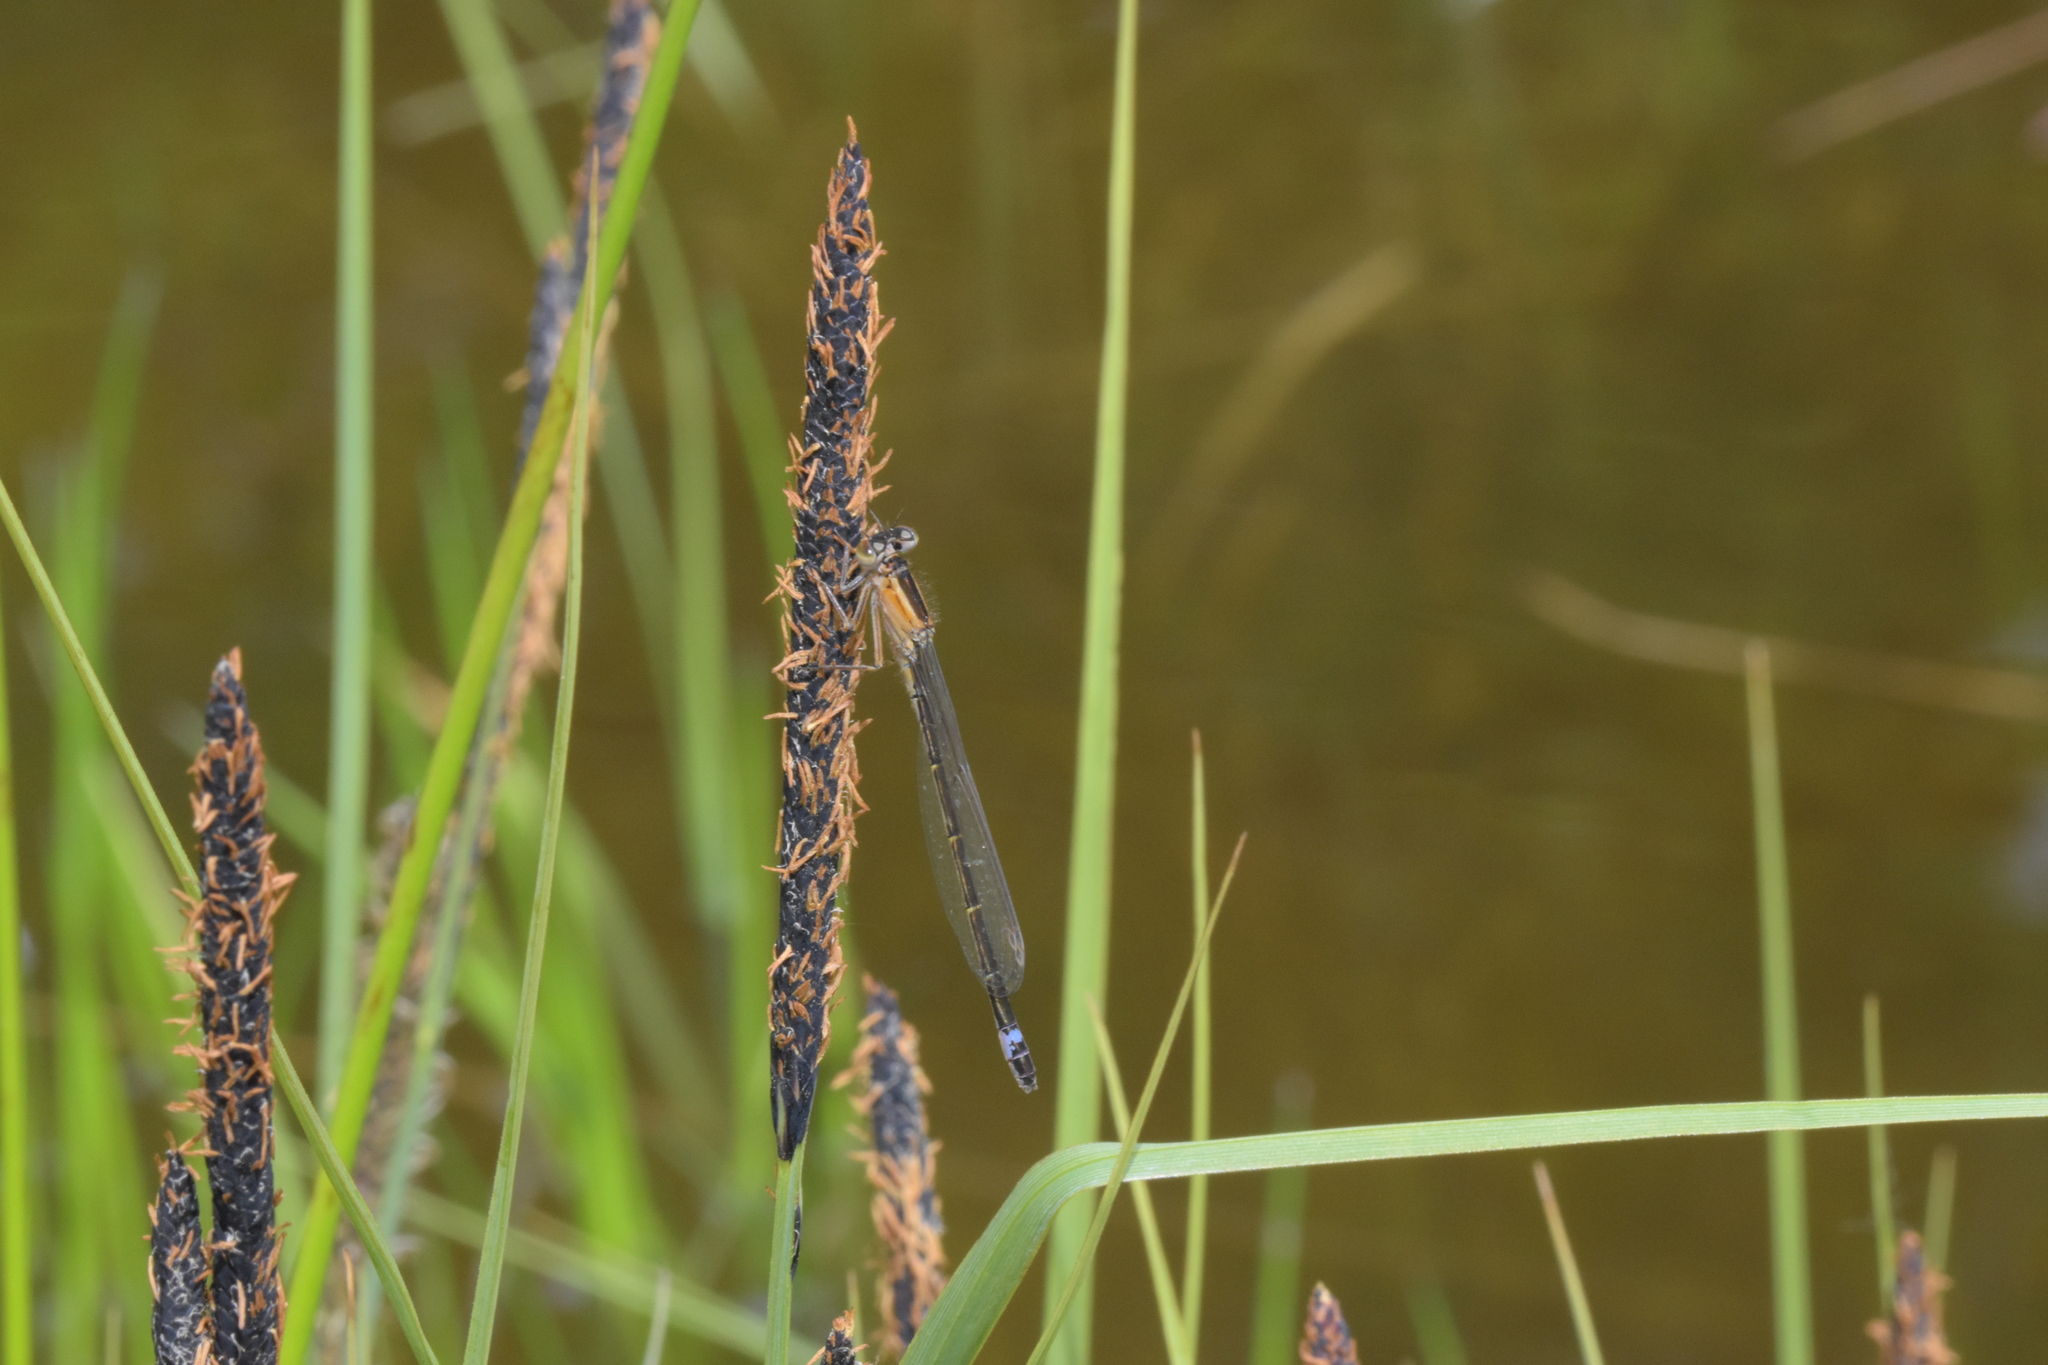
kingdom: Animalia
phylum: Arthropoda
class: Insecta
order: Odonata
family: Coenagrionidae
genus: Ischnura
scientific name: Ischnura elegans
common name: Blue-tailed damselfly
